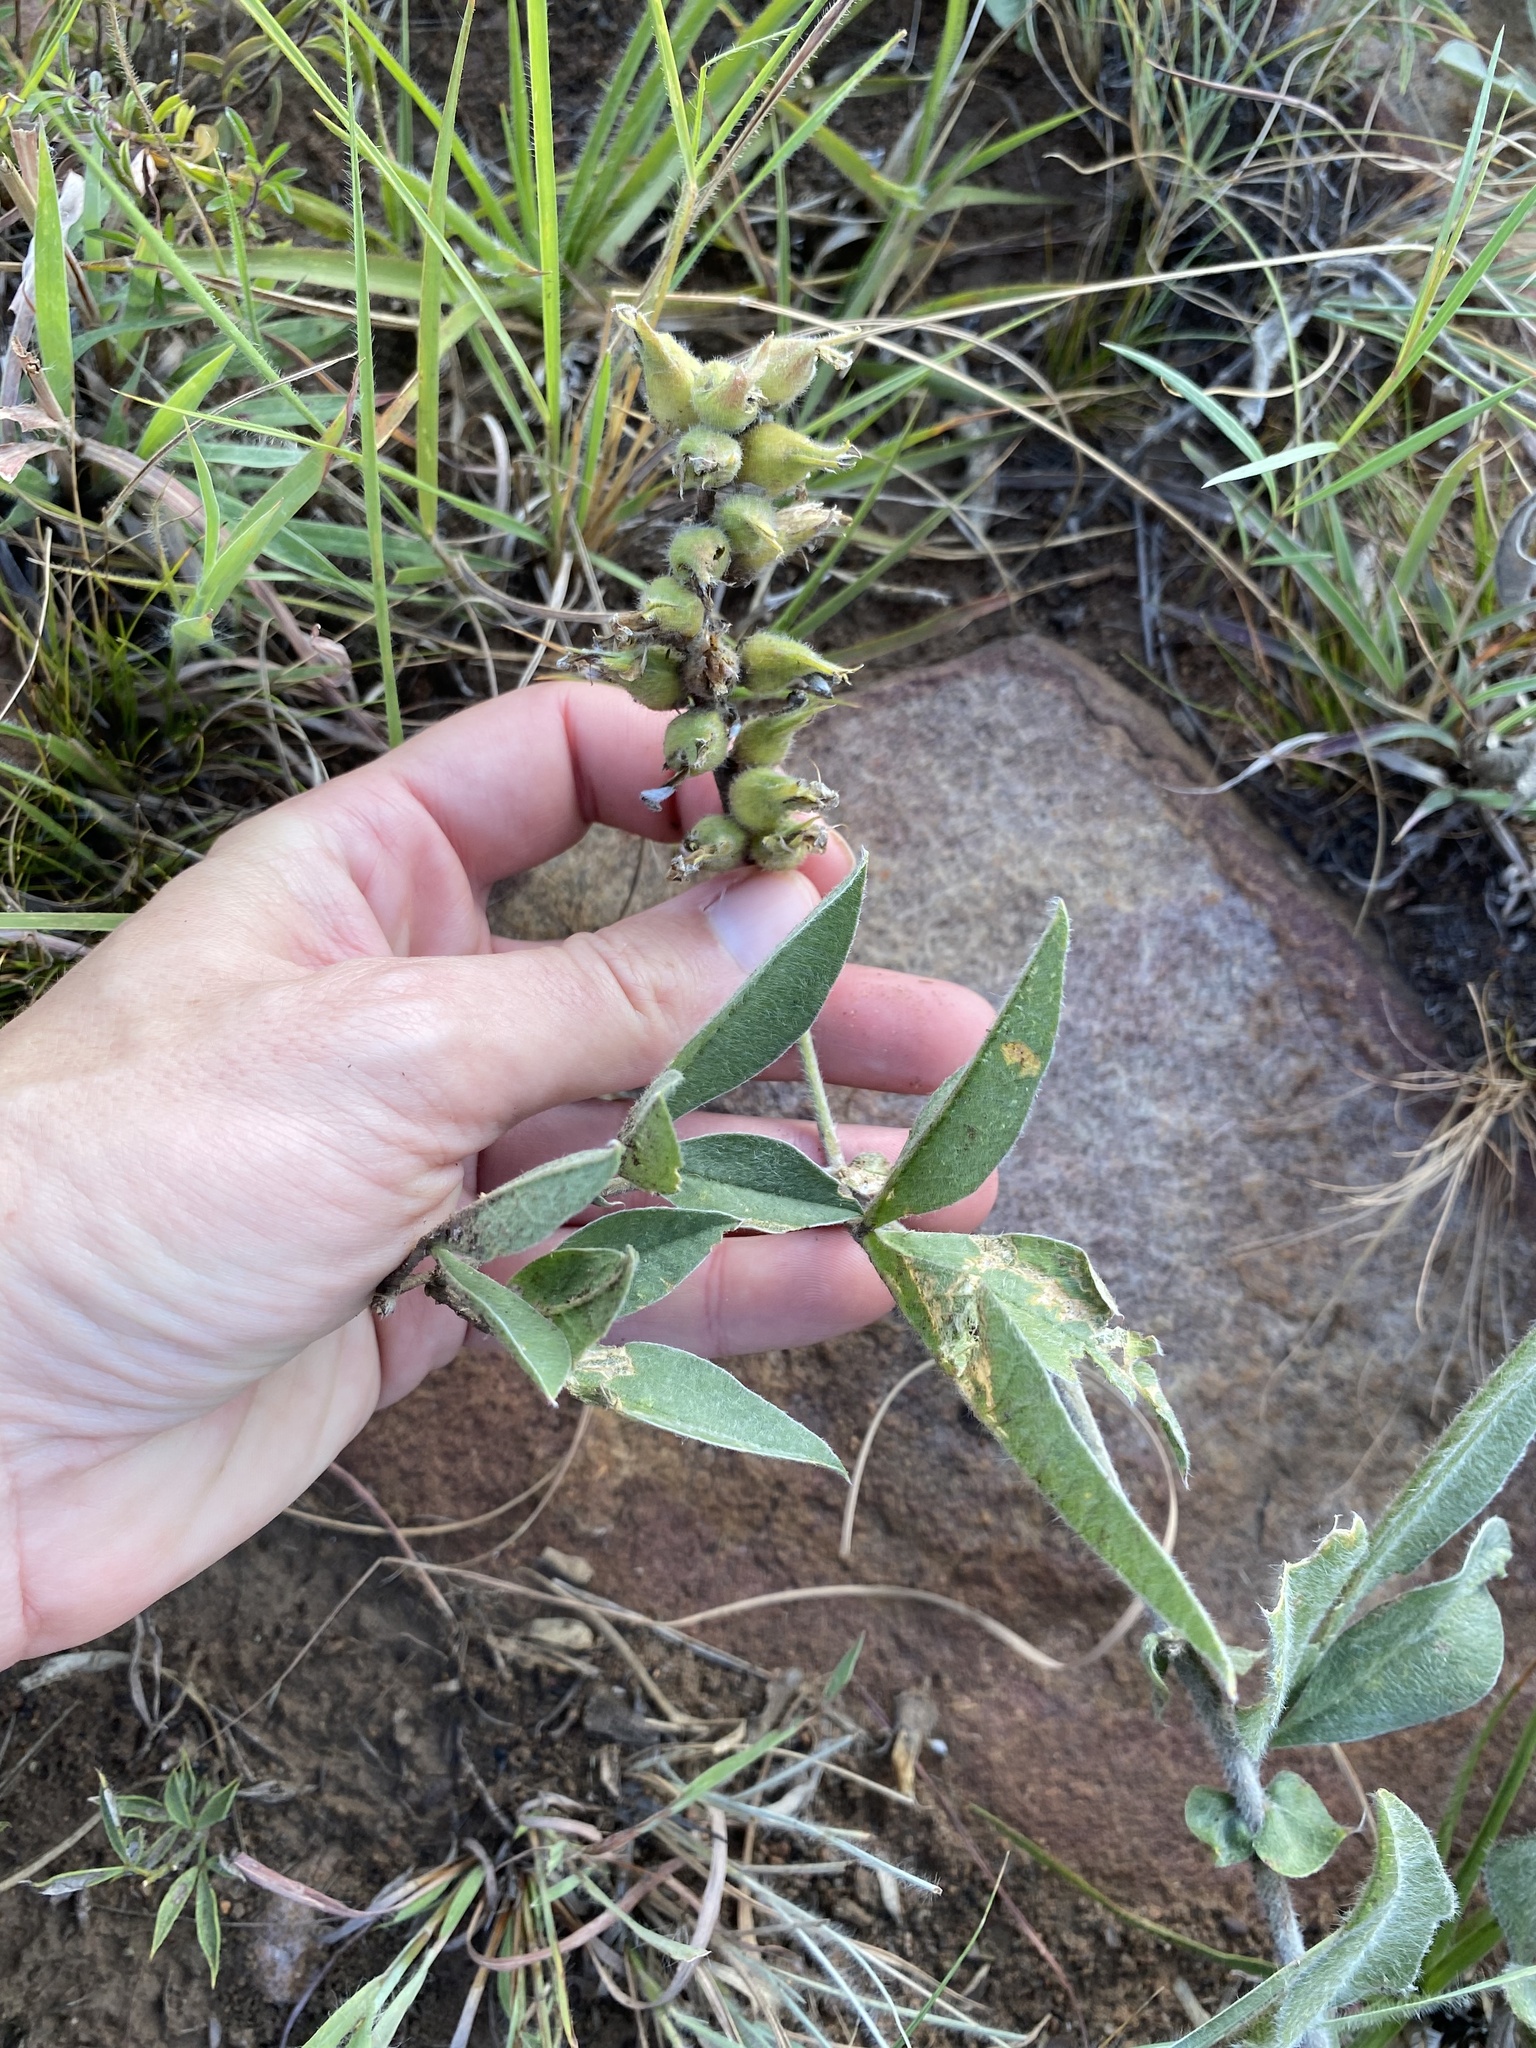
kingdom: Plantae
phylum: Tracheophyta
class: Magnoliopsida
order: Fabales
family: Fabaceae
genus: Pearsonia
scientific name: Pearsonia grandifolia
